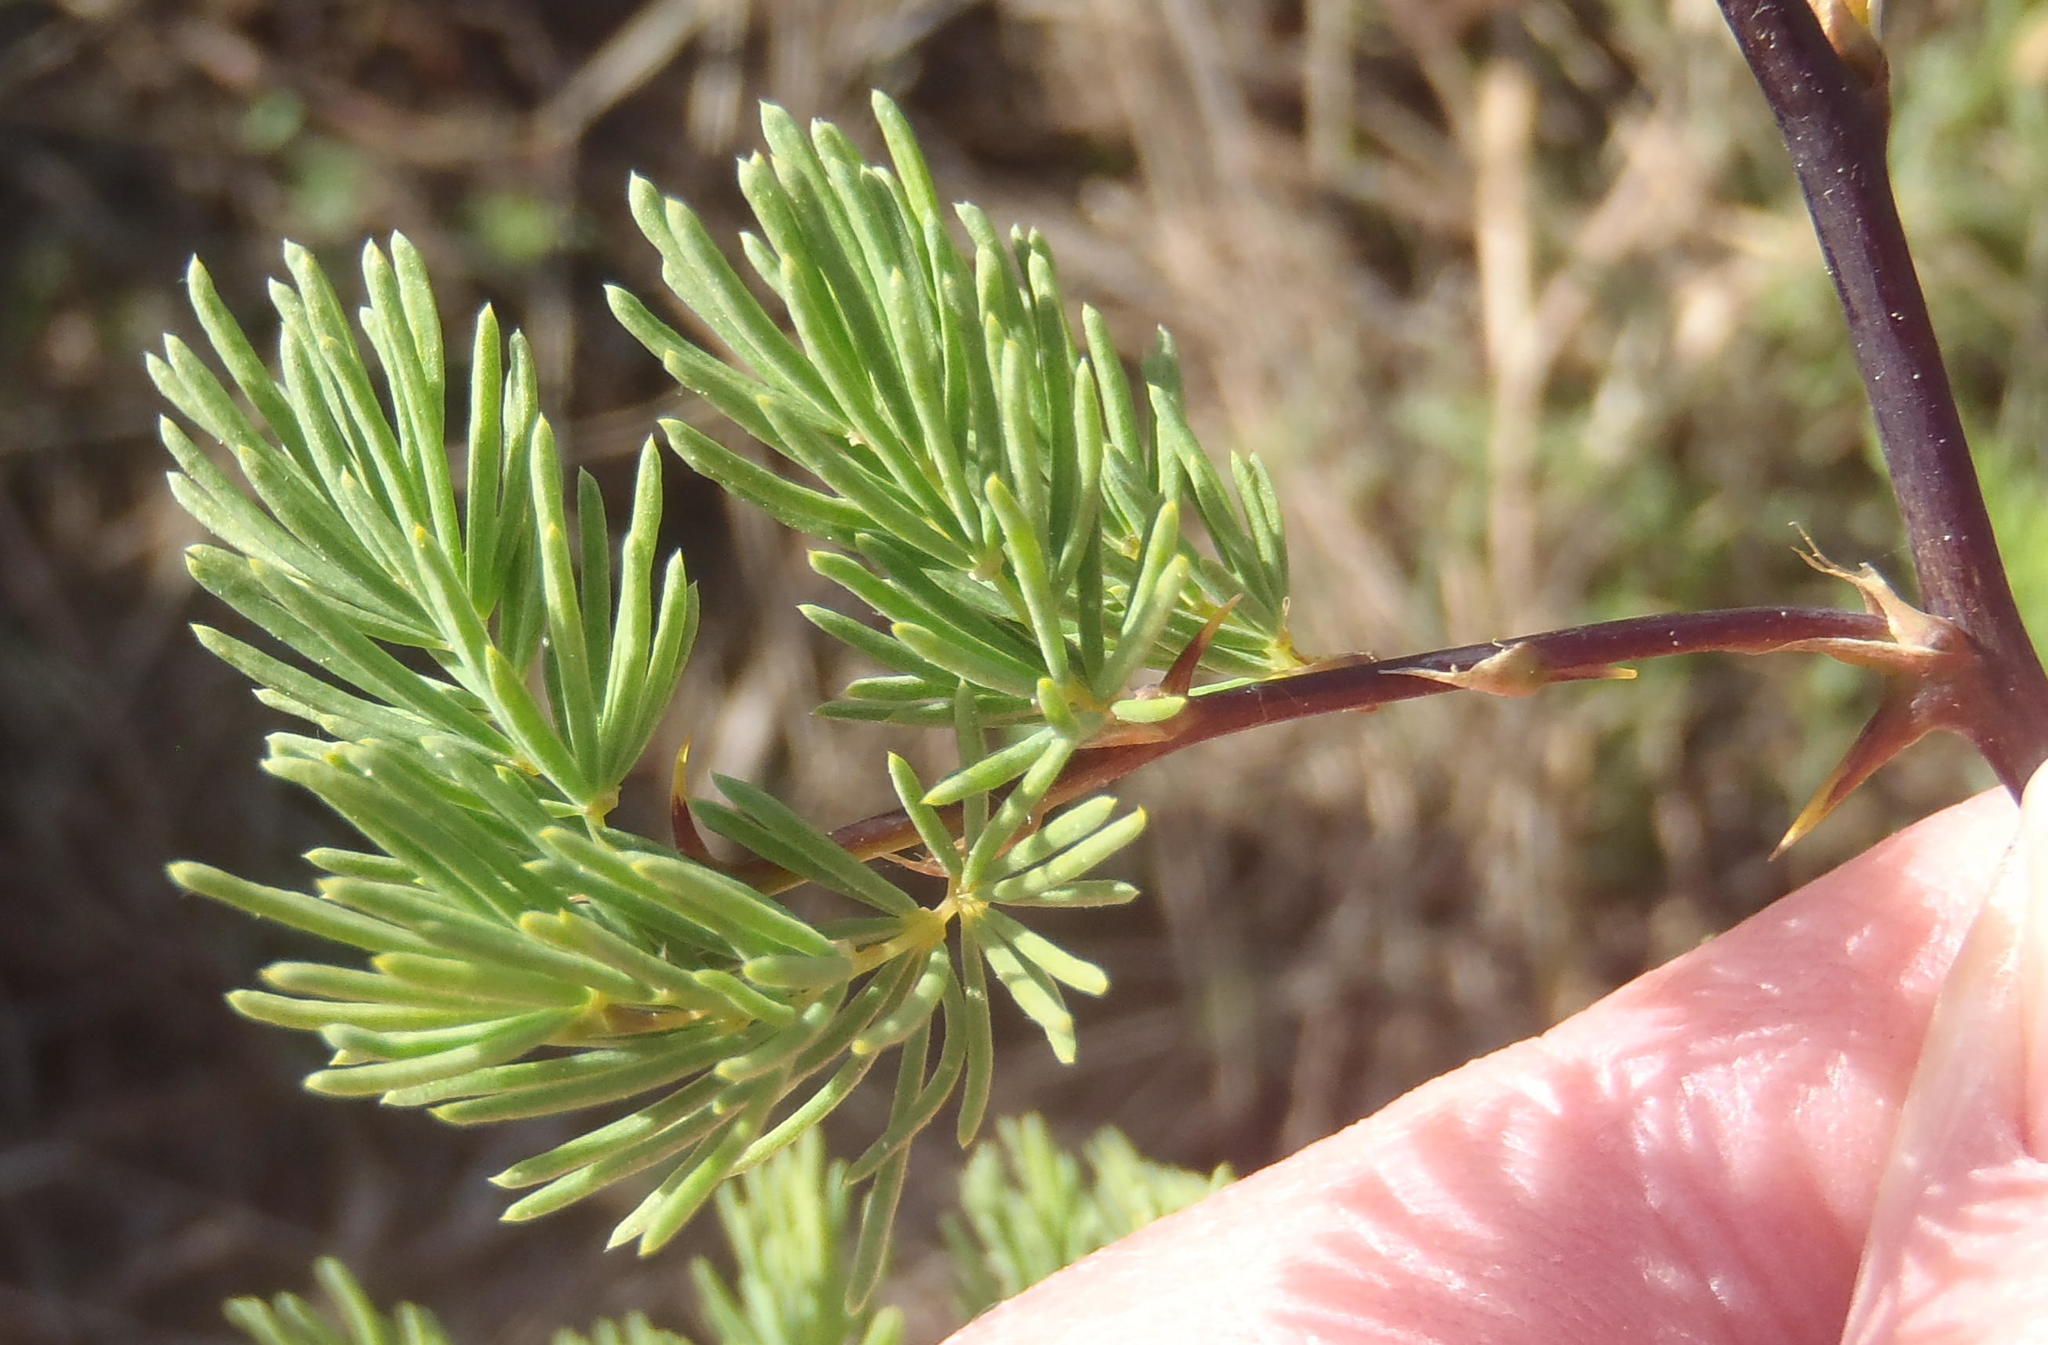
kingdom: Plantae
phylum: Tracheophyta
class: Liliopsida
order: Asparagales
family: Asparagaceae
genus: Asparagus
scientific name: Asparagus rubicundus
